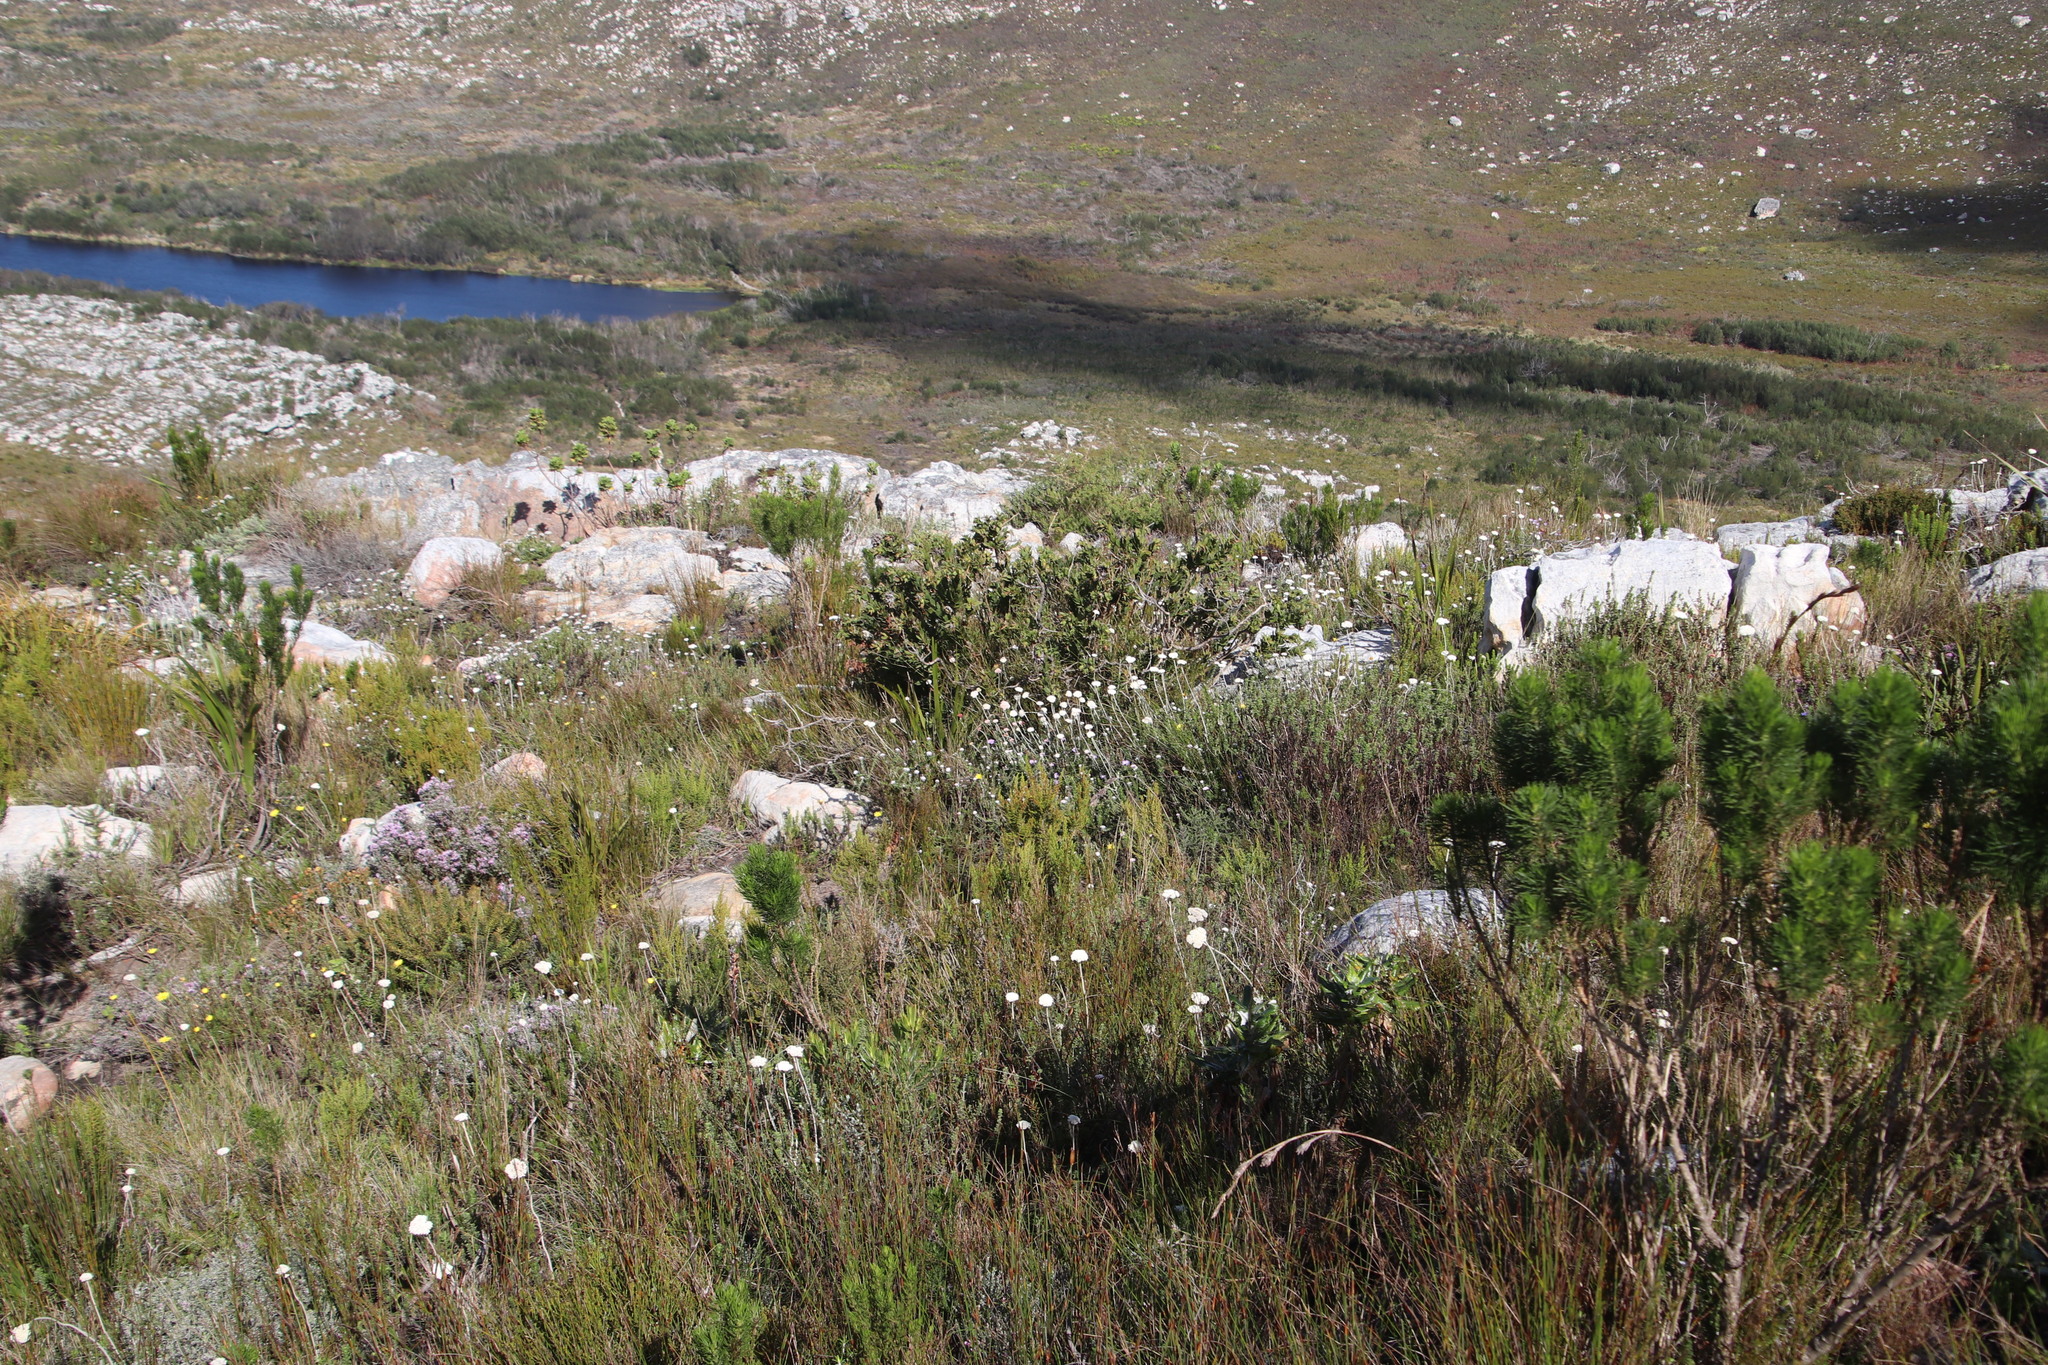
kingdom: Plantae
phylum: Tracheophyta
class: Magnoliopsida
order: Fabales
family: Fabaceae
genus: Liparia
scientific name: Liparia splendens
